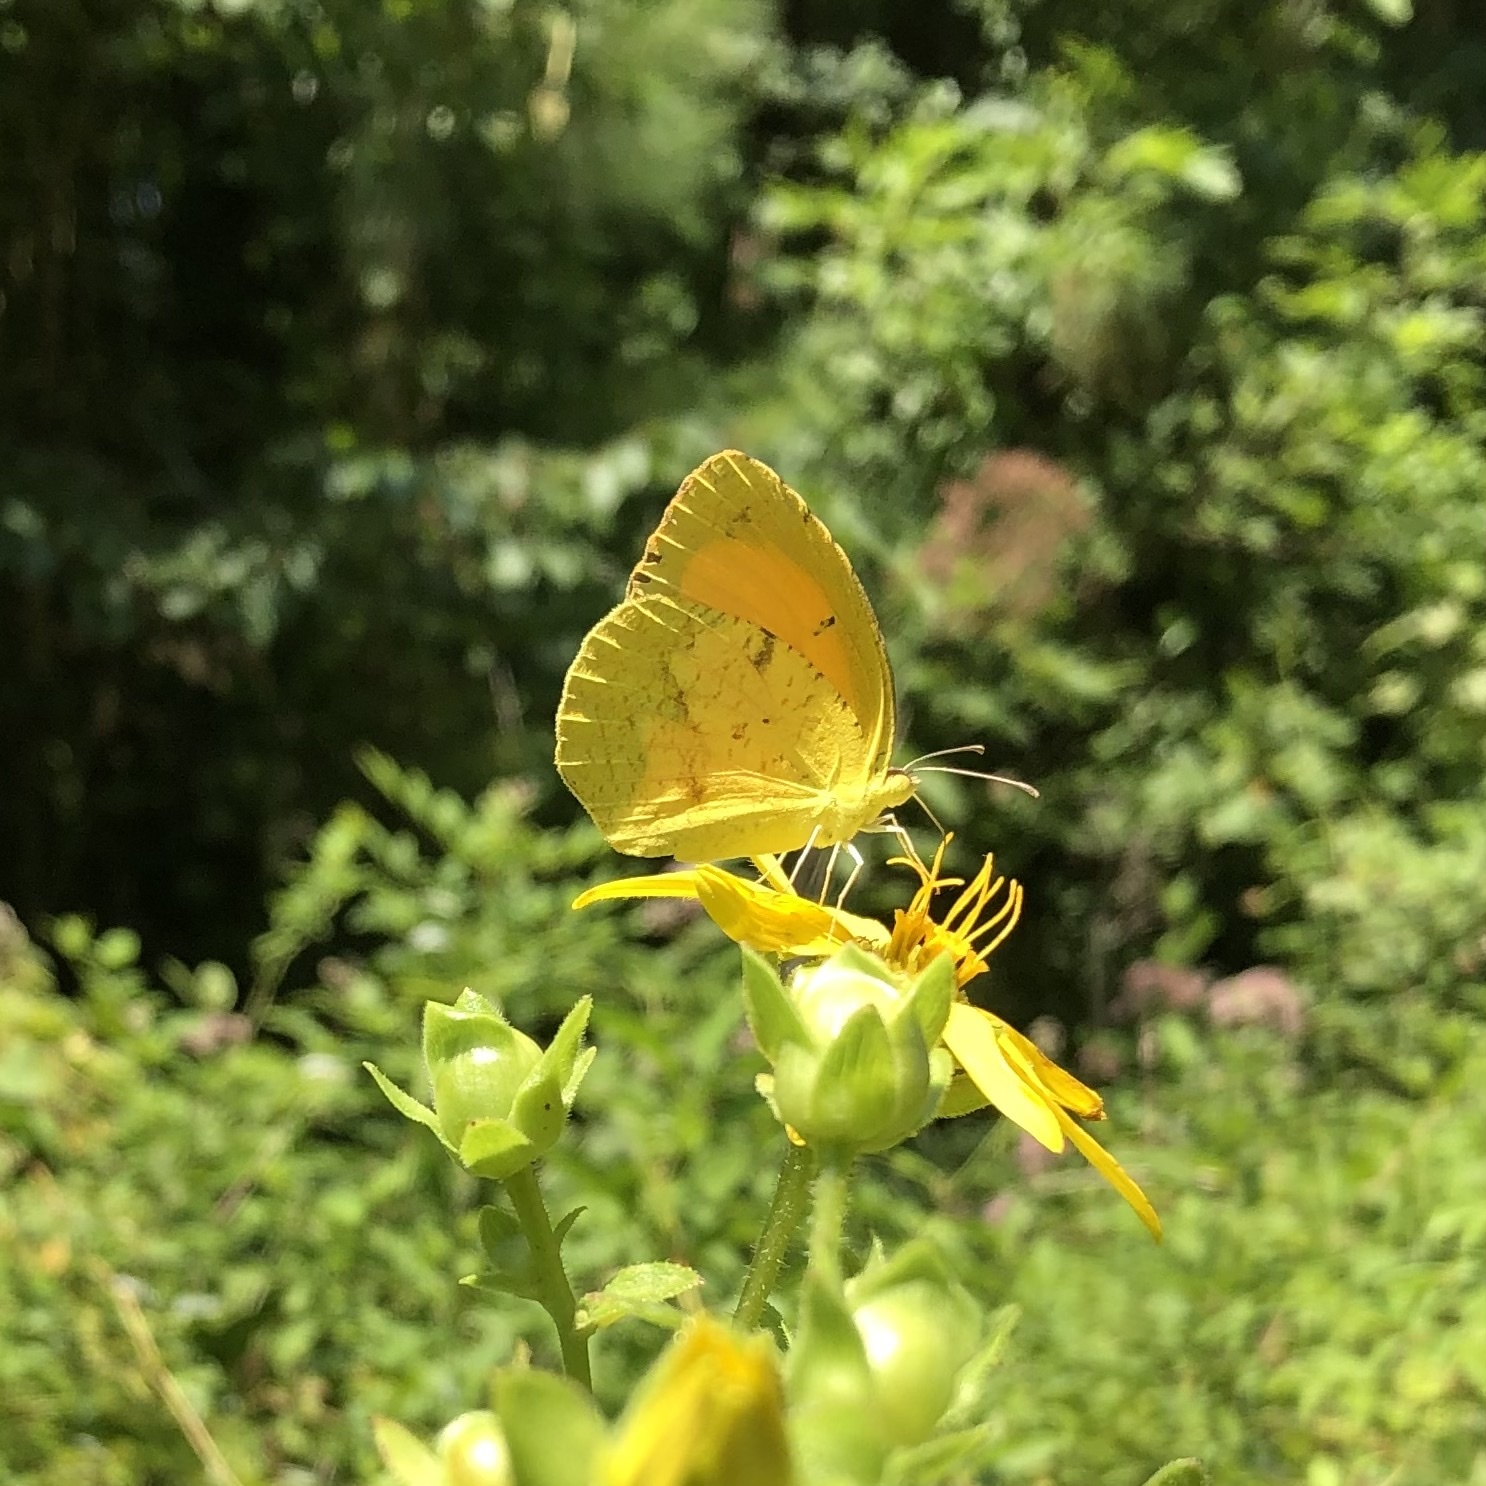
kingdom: Animalia
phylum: Arthropoda
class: Insecta
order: Lepidoptera
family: Pieridae
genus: Abaeis
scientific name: Abaeis nicippe
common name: Sleepy orange
